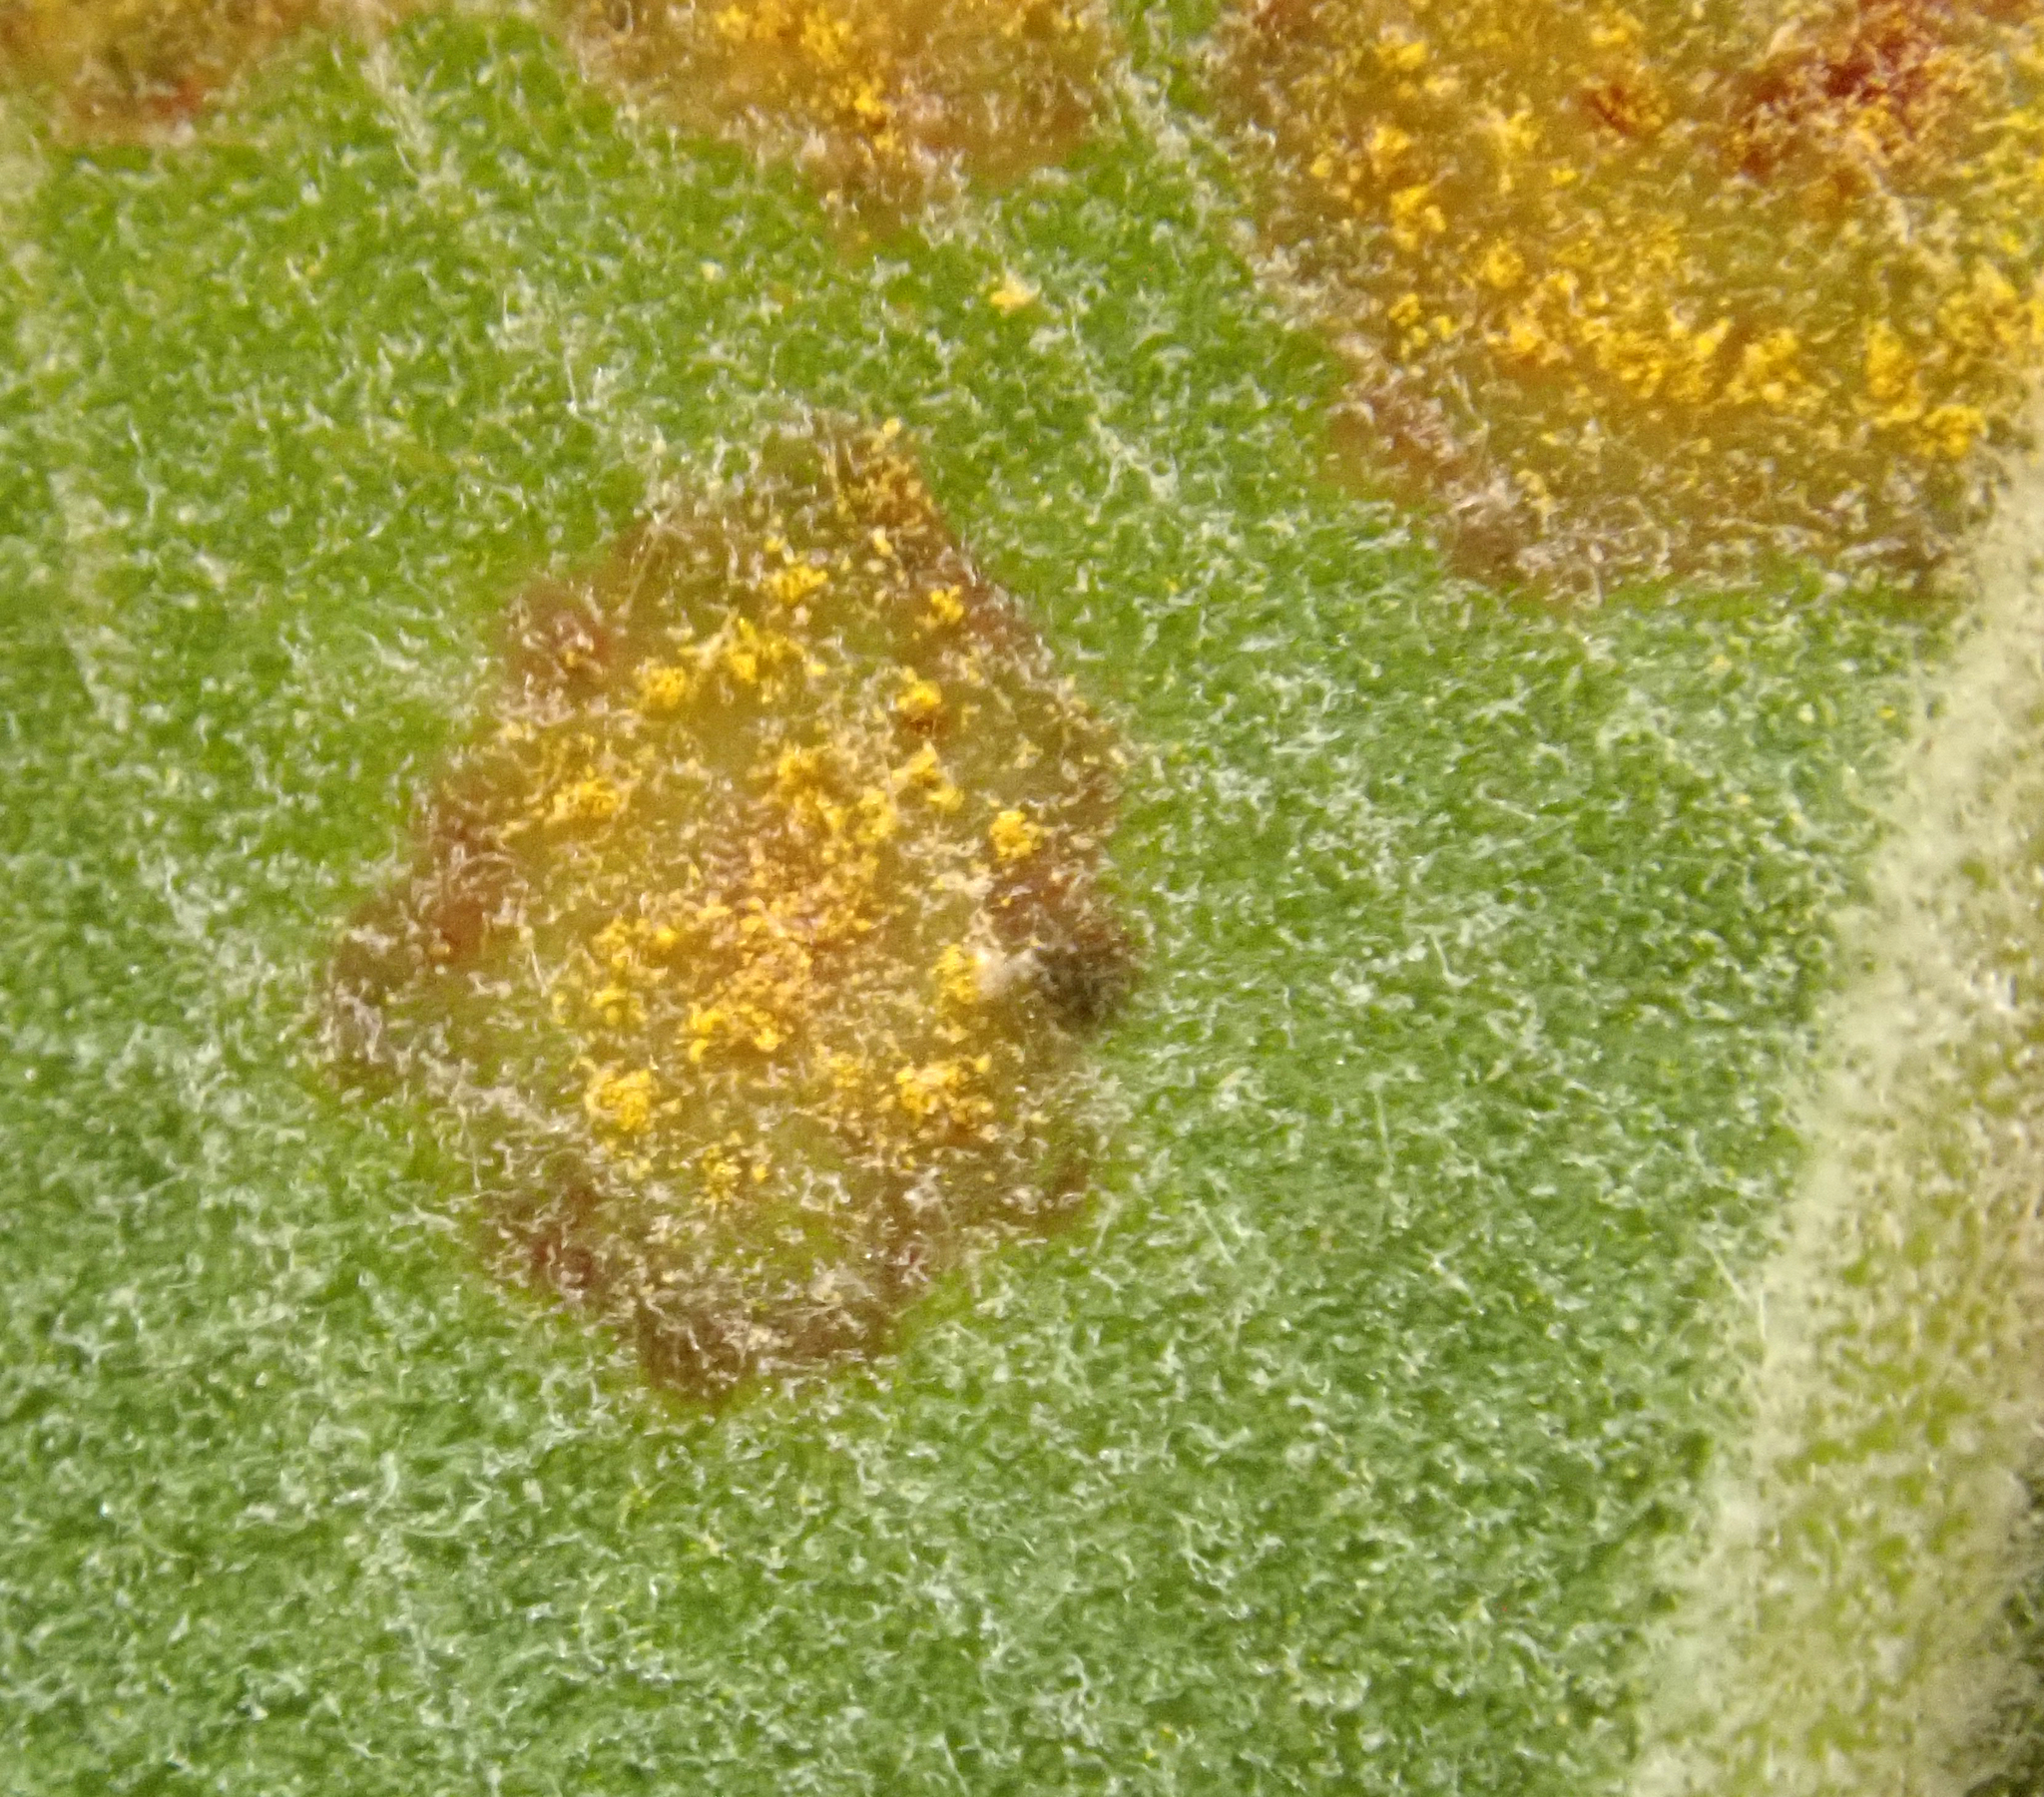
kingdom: Fungi
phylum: Basidiomycota
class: Pucciniomycetes
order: Pucciniales
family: Sphaerophragmiaceae
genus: Austropuccinia
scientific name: Austropuccinia psidii
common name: Myrtle rust
